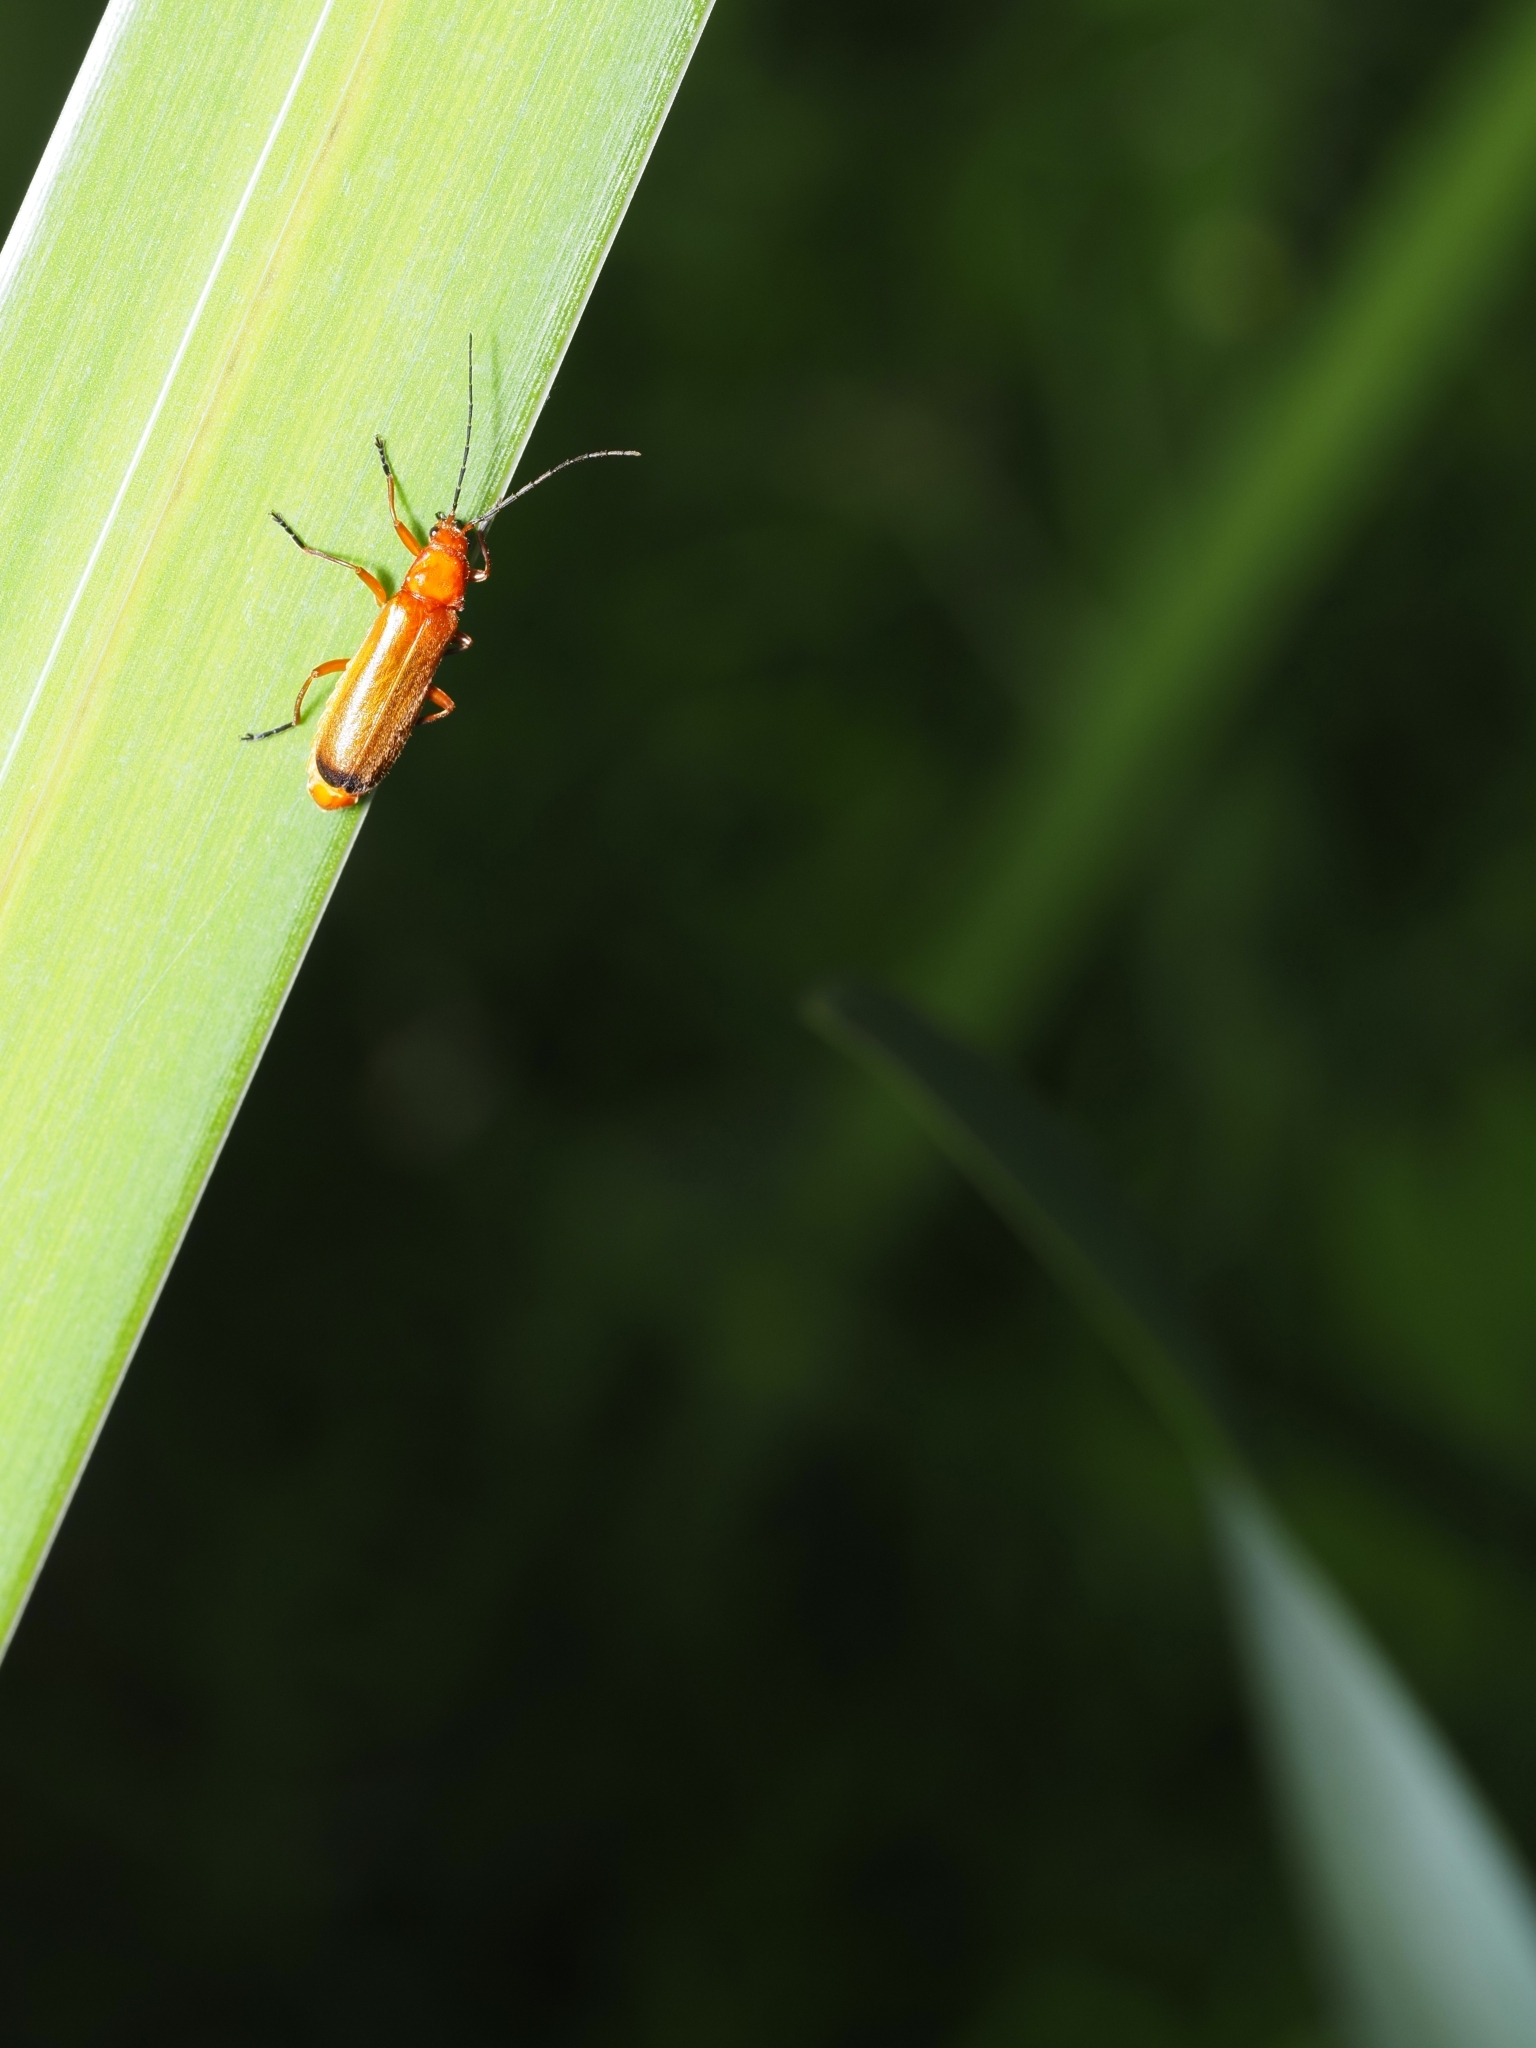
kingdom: Animalia
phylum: Arthropoda
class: Insecta
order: Coleoptera
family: Cantharidae
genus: Rhagonycha
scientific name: Rhagonycha fulva
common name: Common red soldier beetle
